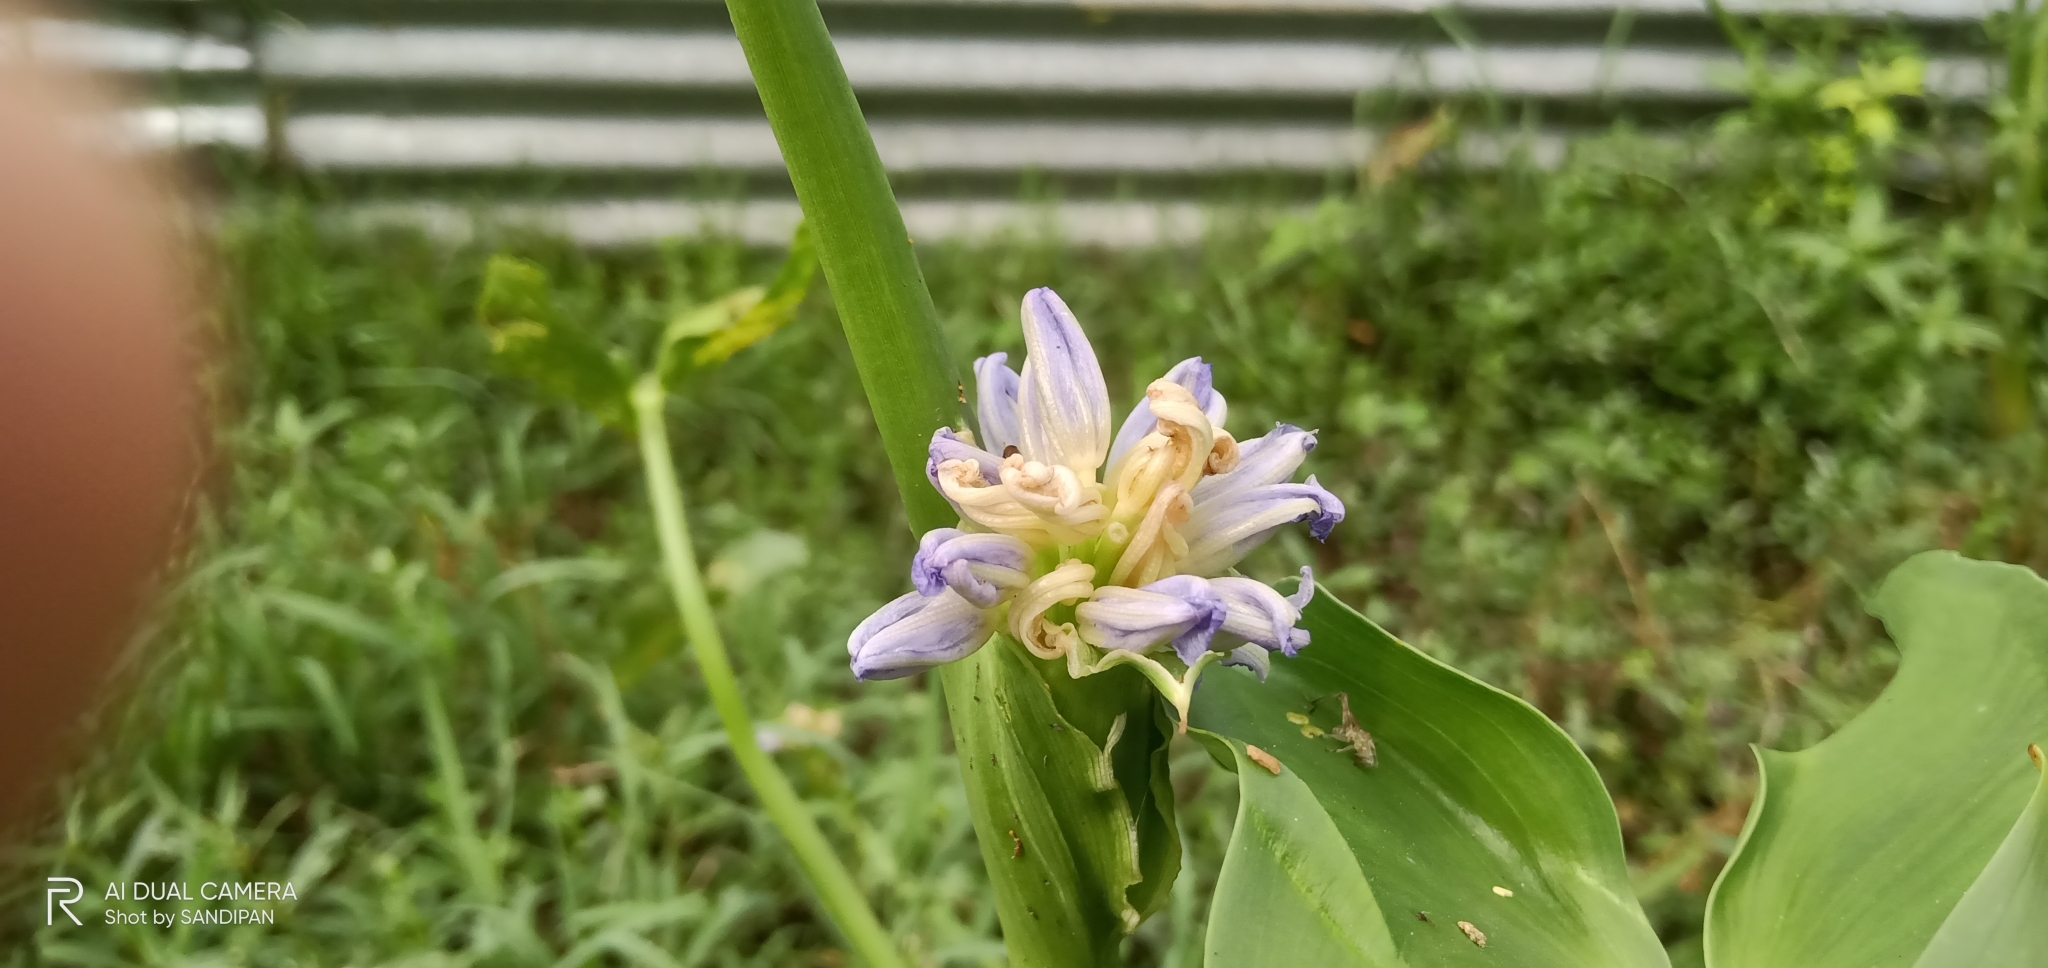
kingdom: Plantae
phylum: Tracheophyta
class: Liliopsida
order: Commelinales
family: Pontederiaceae
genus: Pontederia
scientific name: Pontederia crassipes
